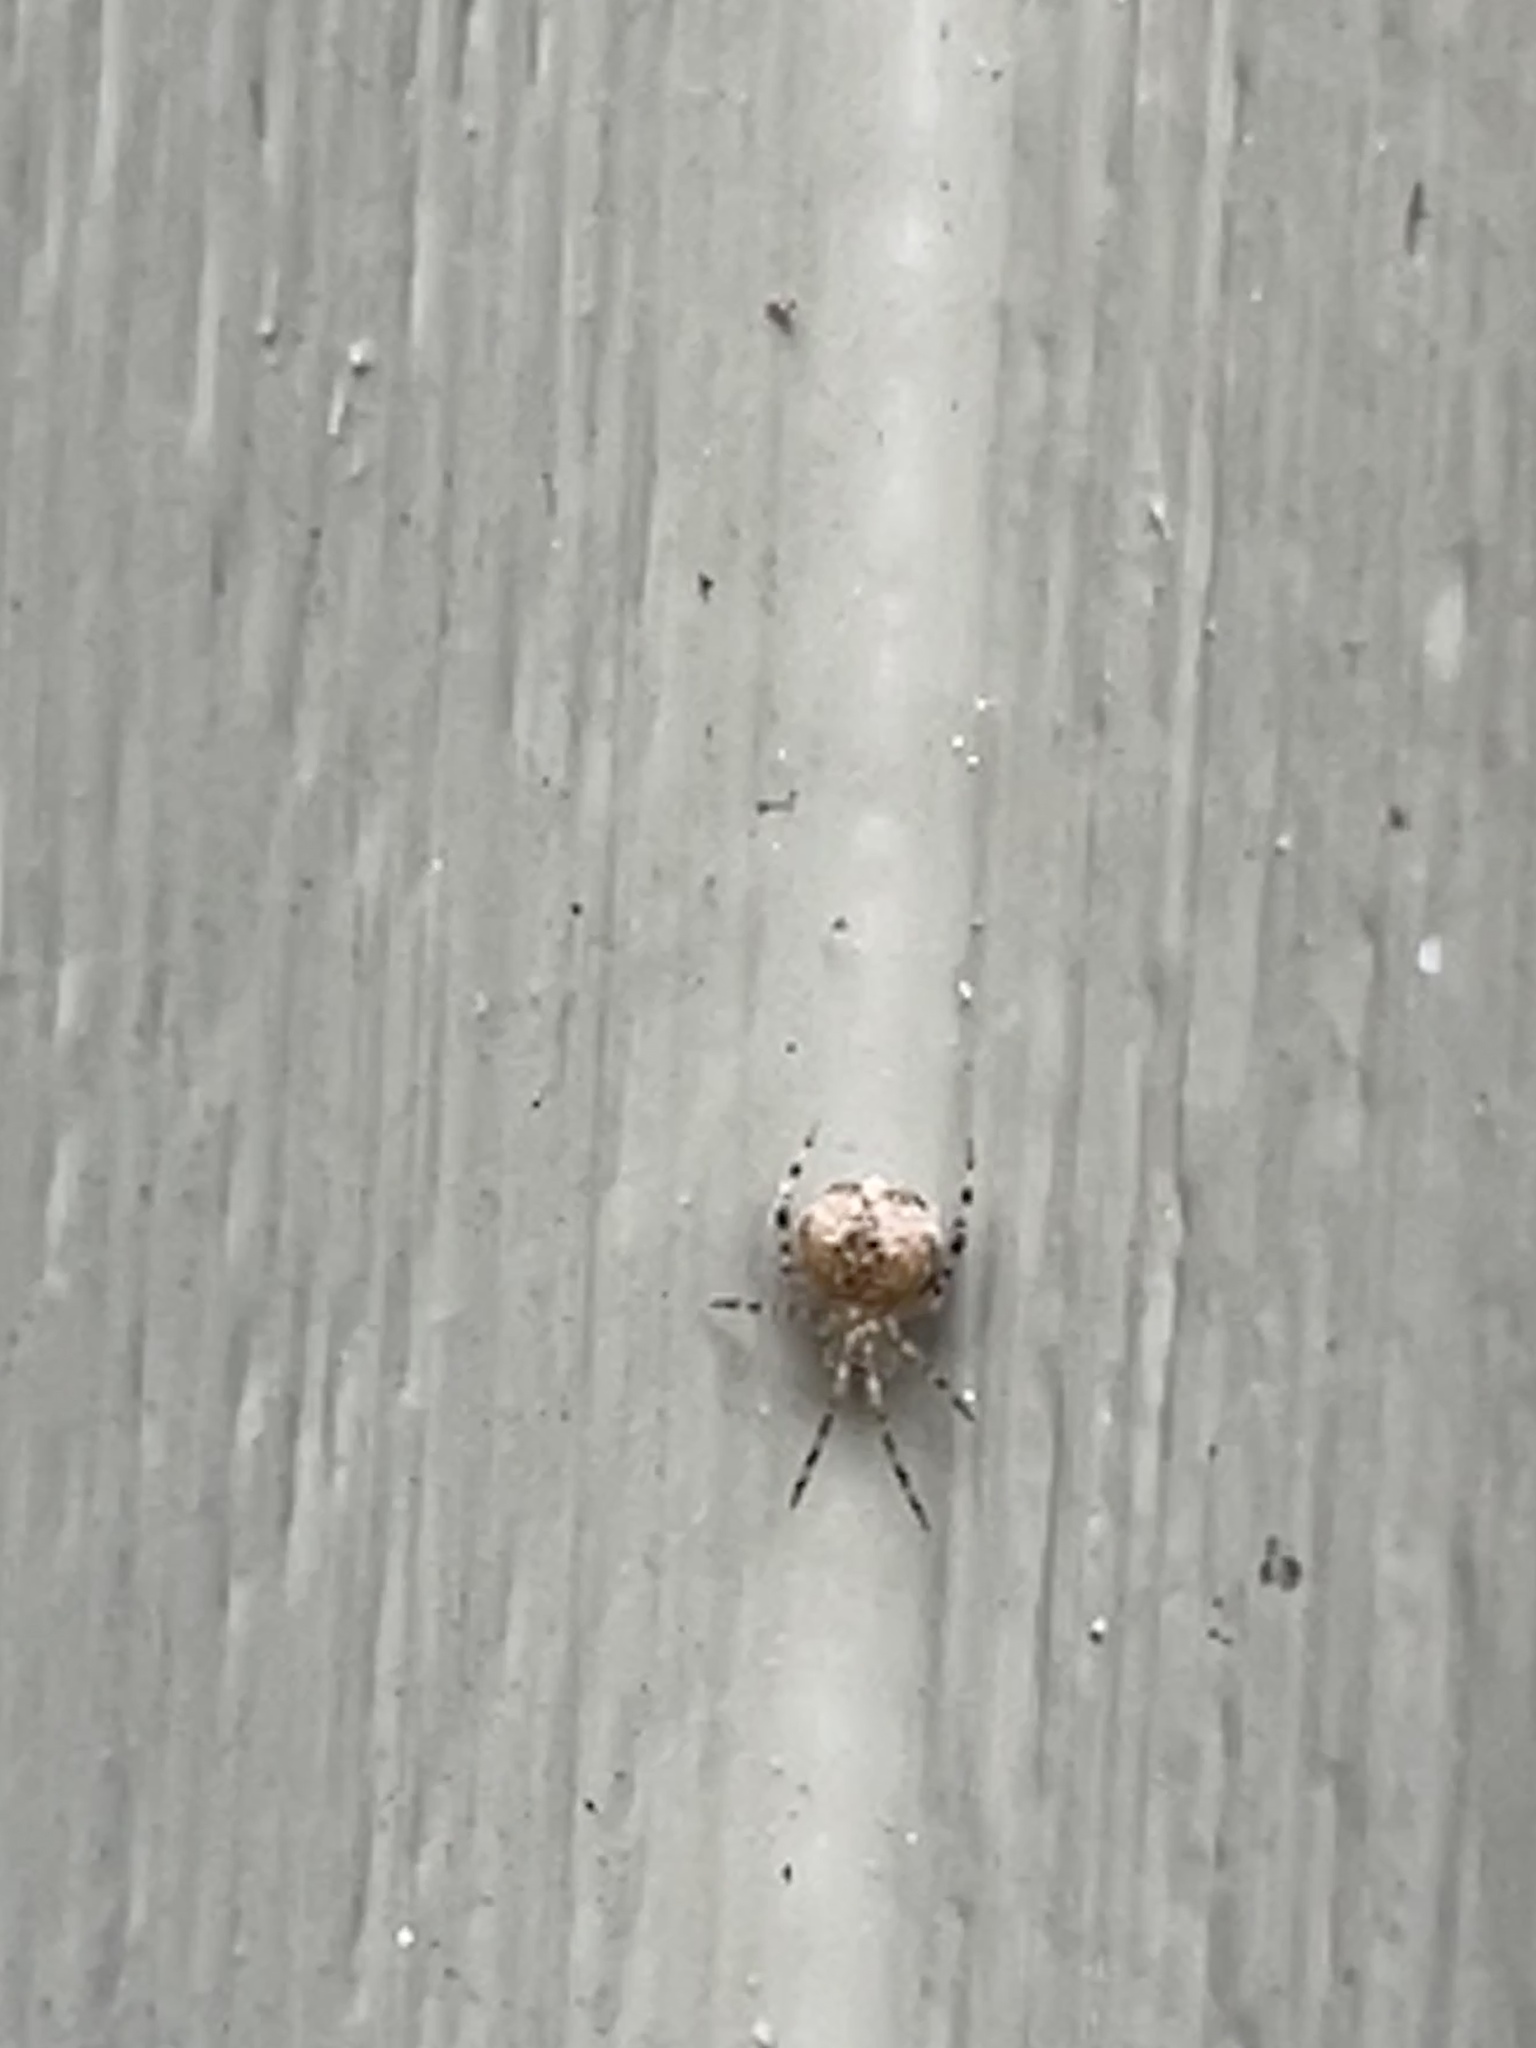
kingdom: Animalia
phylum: Arthropoda
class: Arachnida
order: Araneae
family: Theridiidae
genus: Cryptachaea
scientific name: Cryptachaea veruculata
